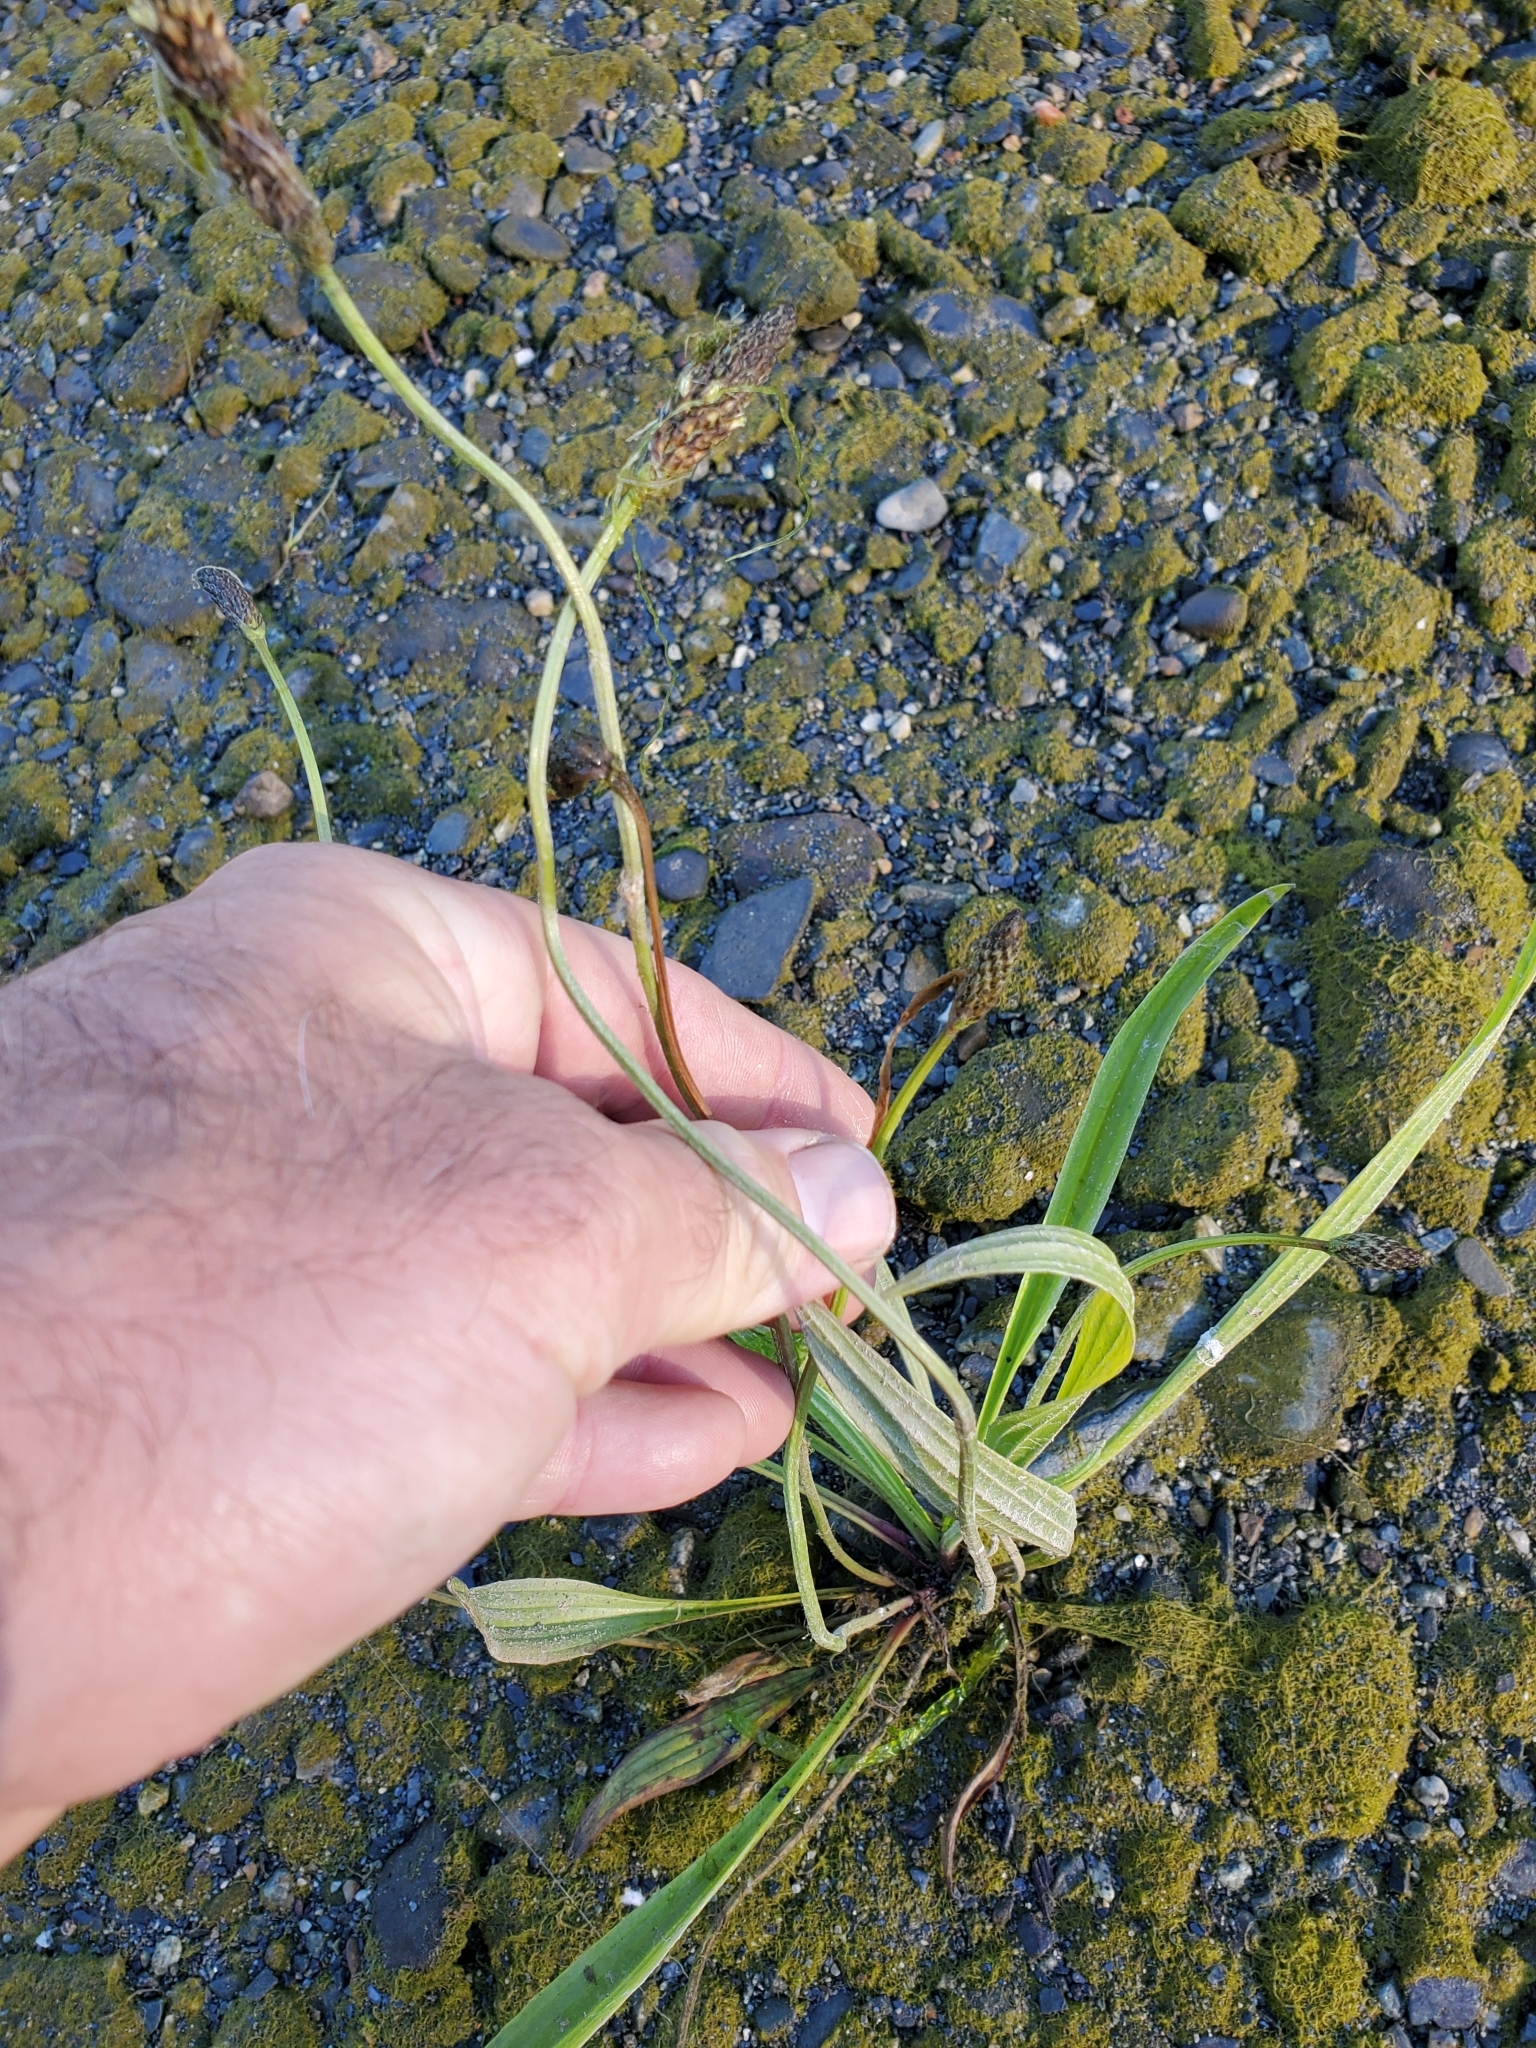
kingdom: Plantae
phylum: Tracheophyta
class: Magnoliopsida
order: Lamiales
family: Plantaginaceae
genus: Plantago
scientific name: Plantago lanceolata
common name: Ribwort plantain
